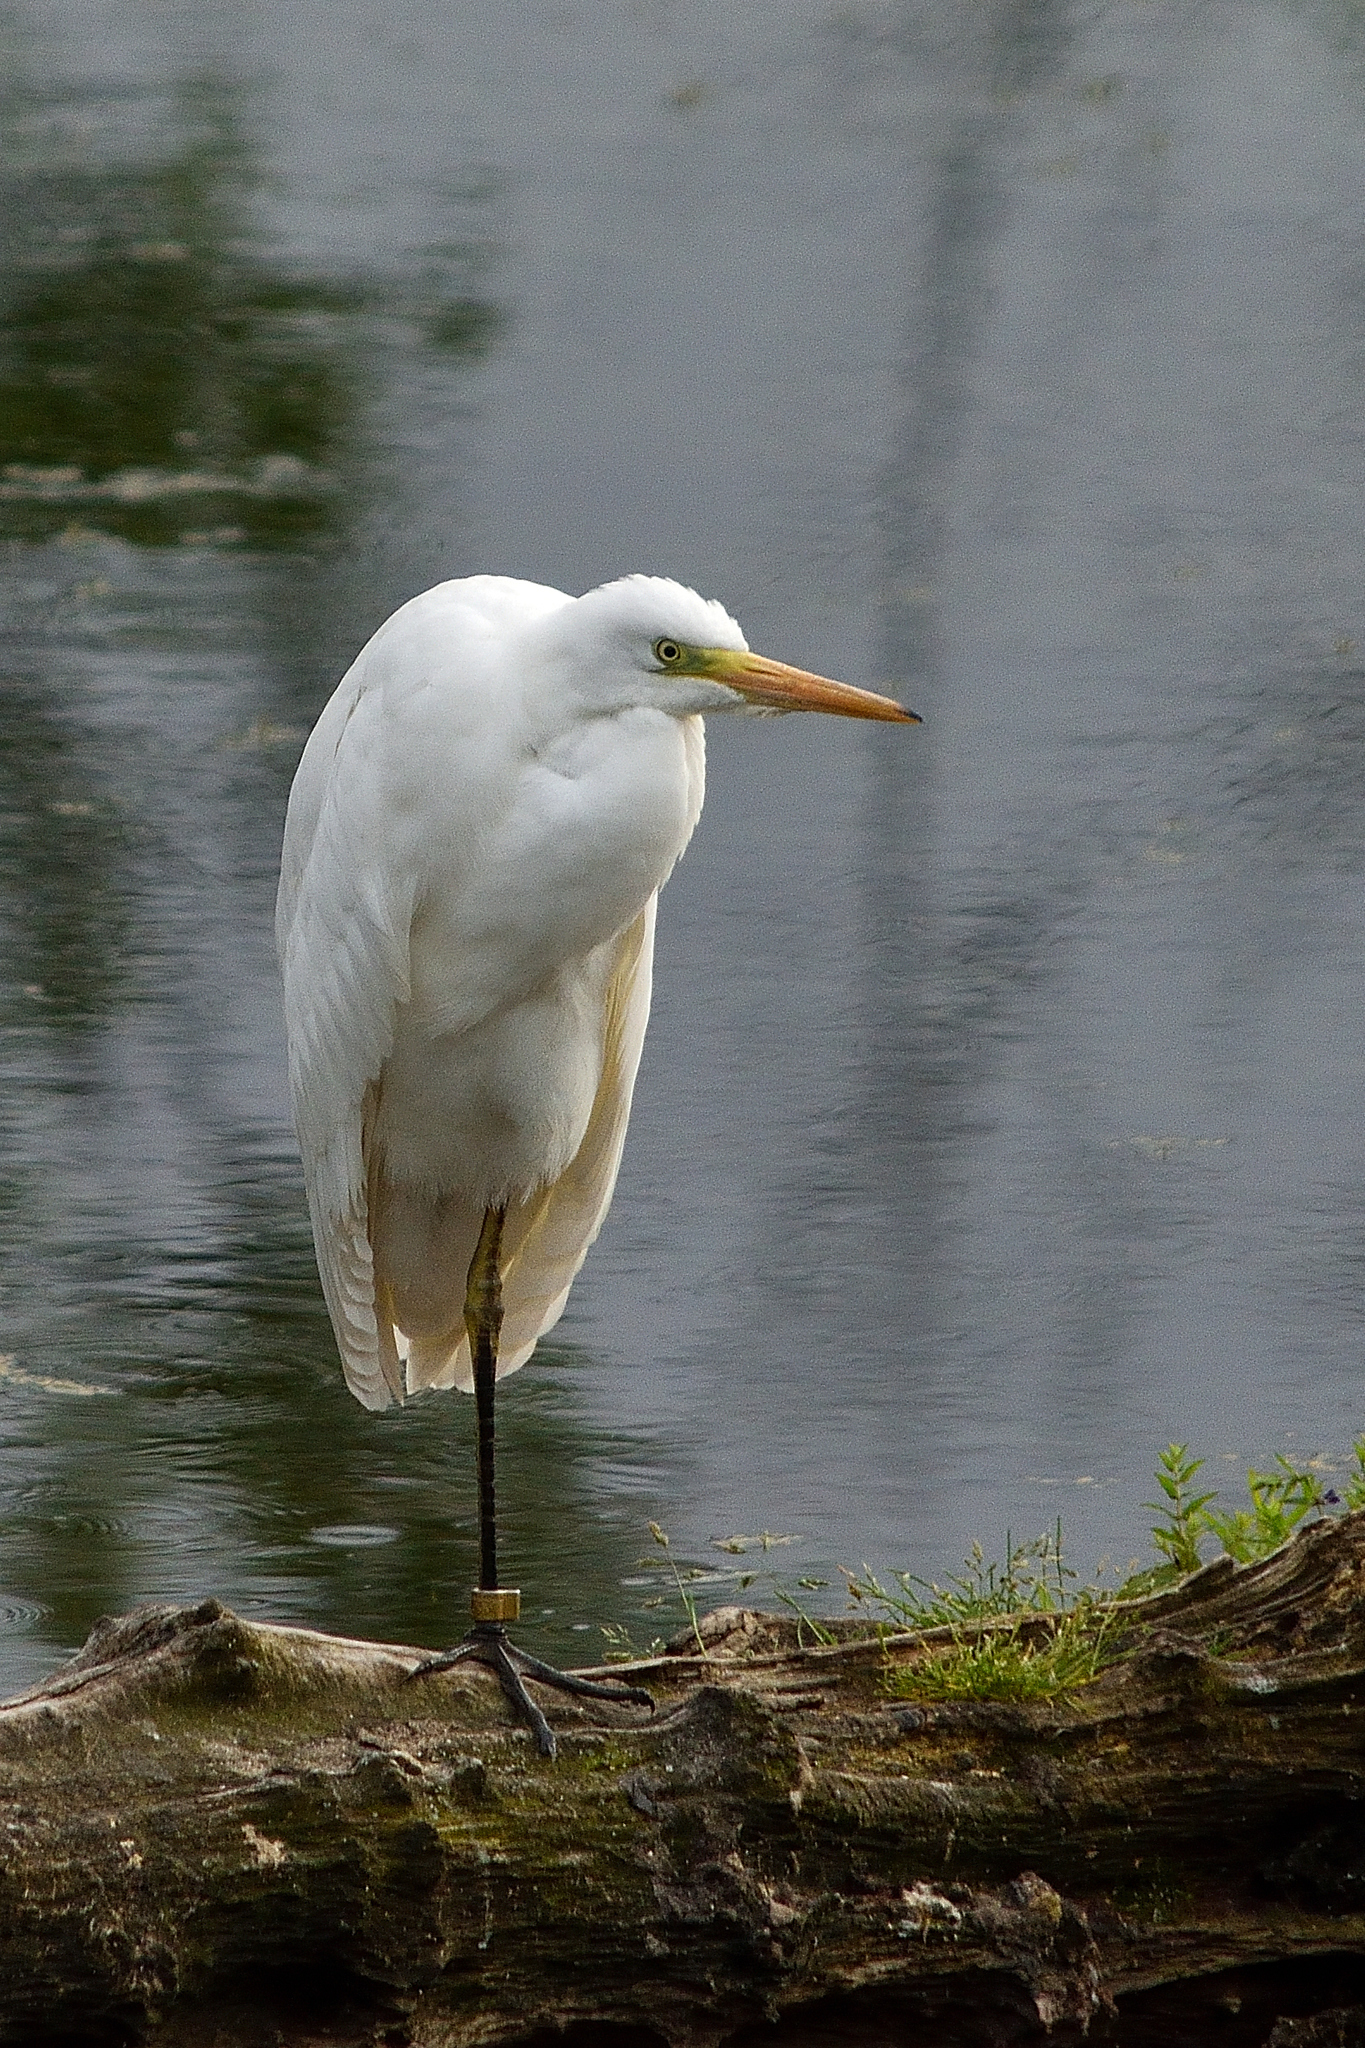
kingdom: Animalia
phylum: Chordata
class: Aves
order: Pelecaniformes
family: Ardeidae
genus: Ardea
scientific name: Ardea alba
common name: Great egret
